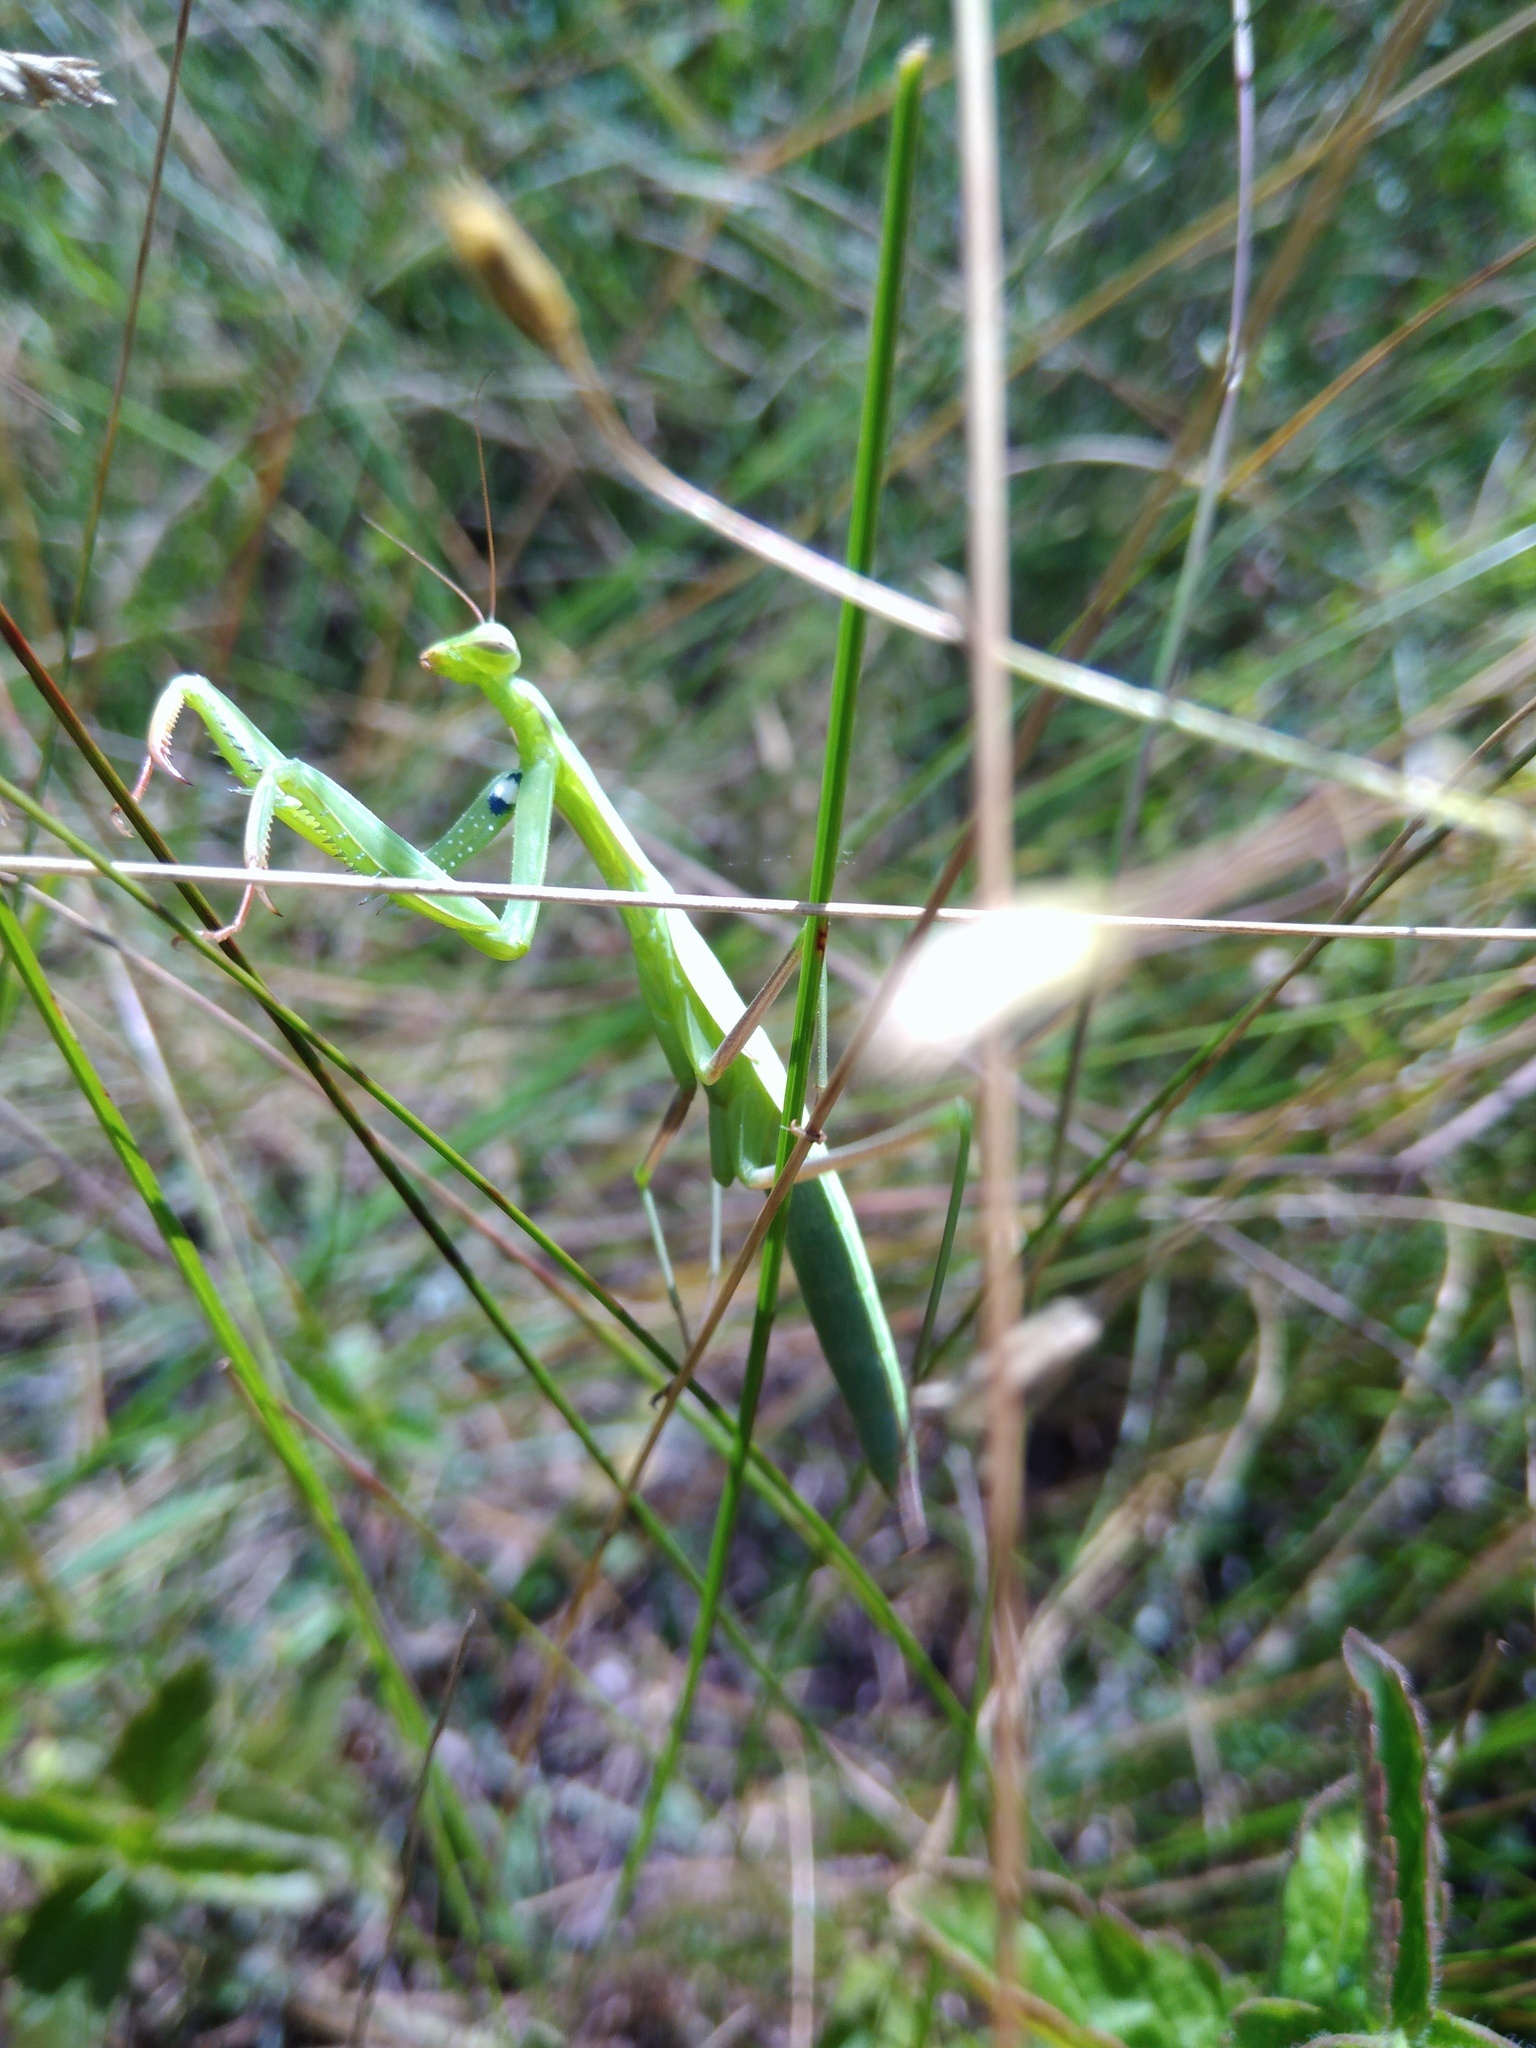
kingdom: Animalia
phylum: Arthropoda
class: Insecta
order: Mantodea
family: Mantidae
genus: Mantis
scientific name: Mantis religiosa
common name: Praying mantis
